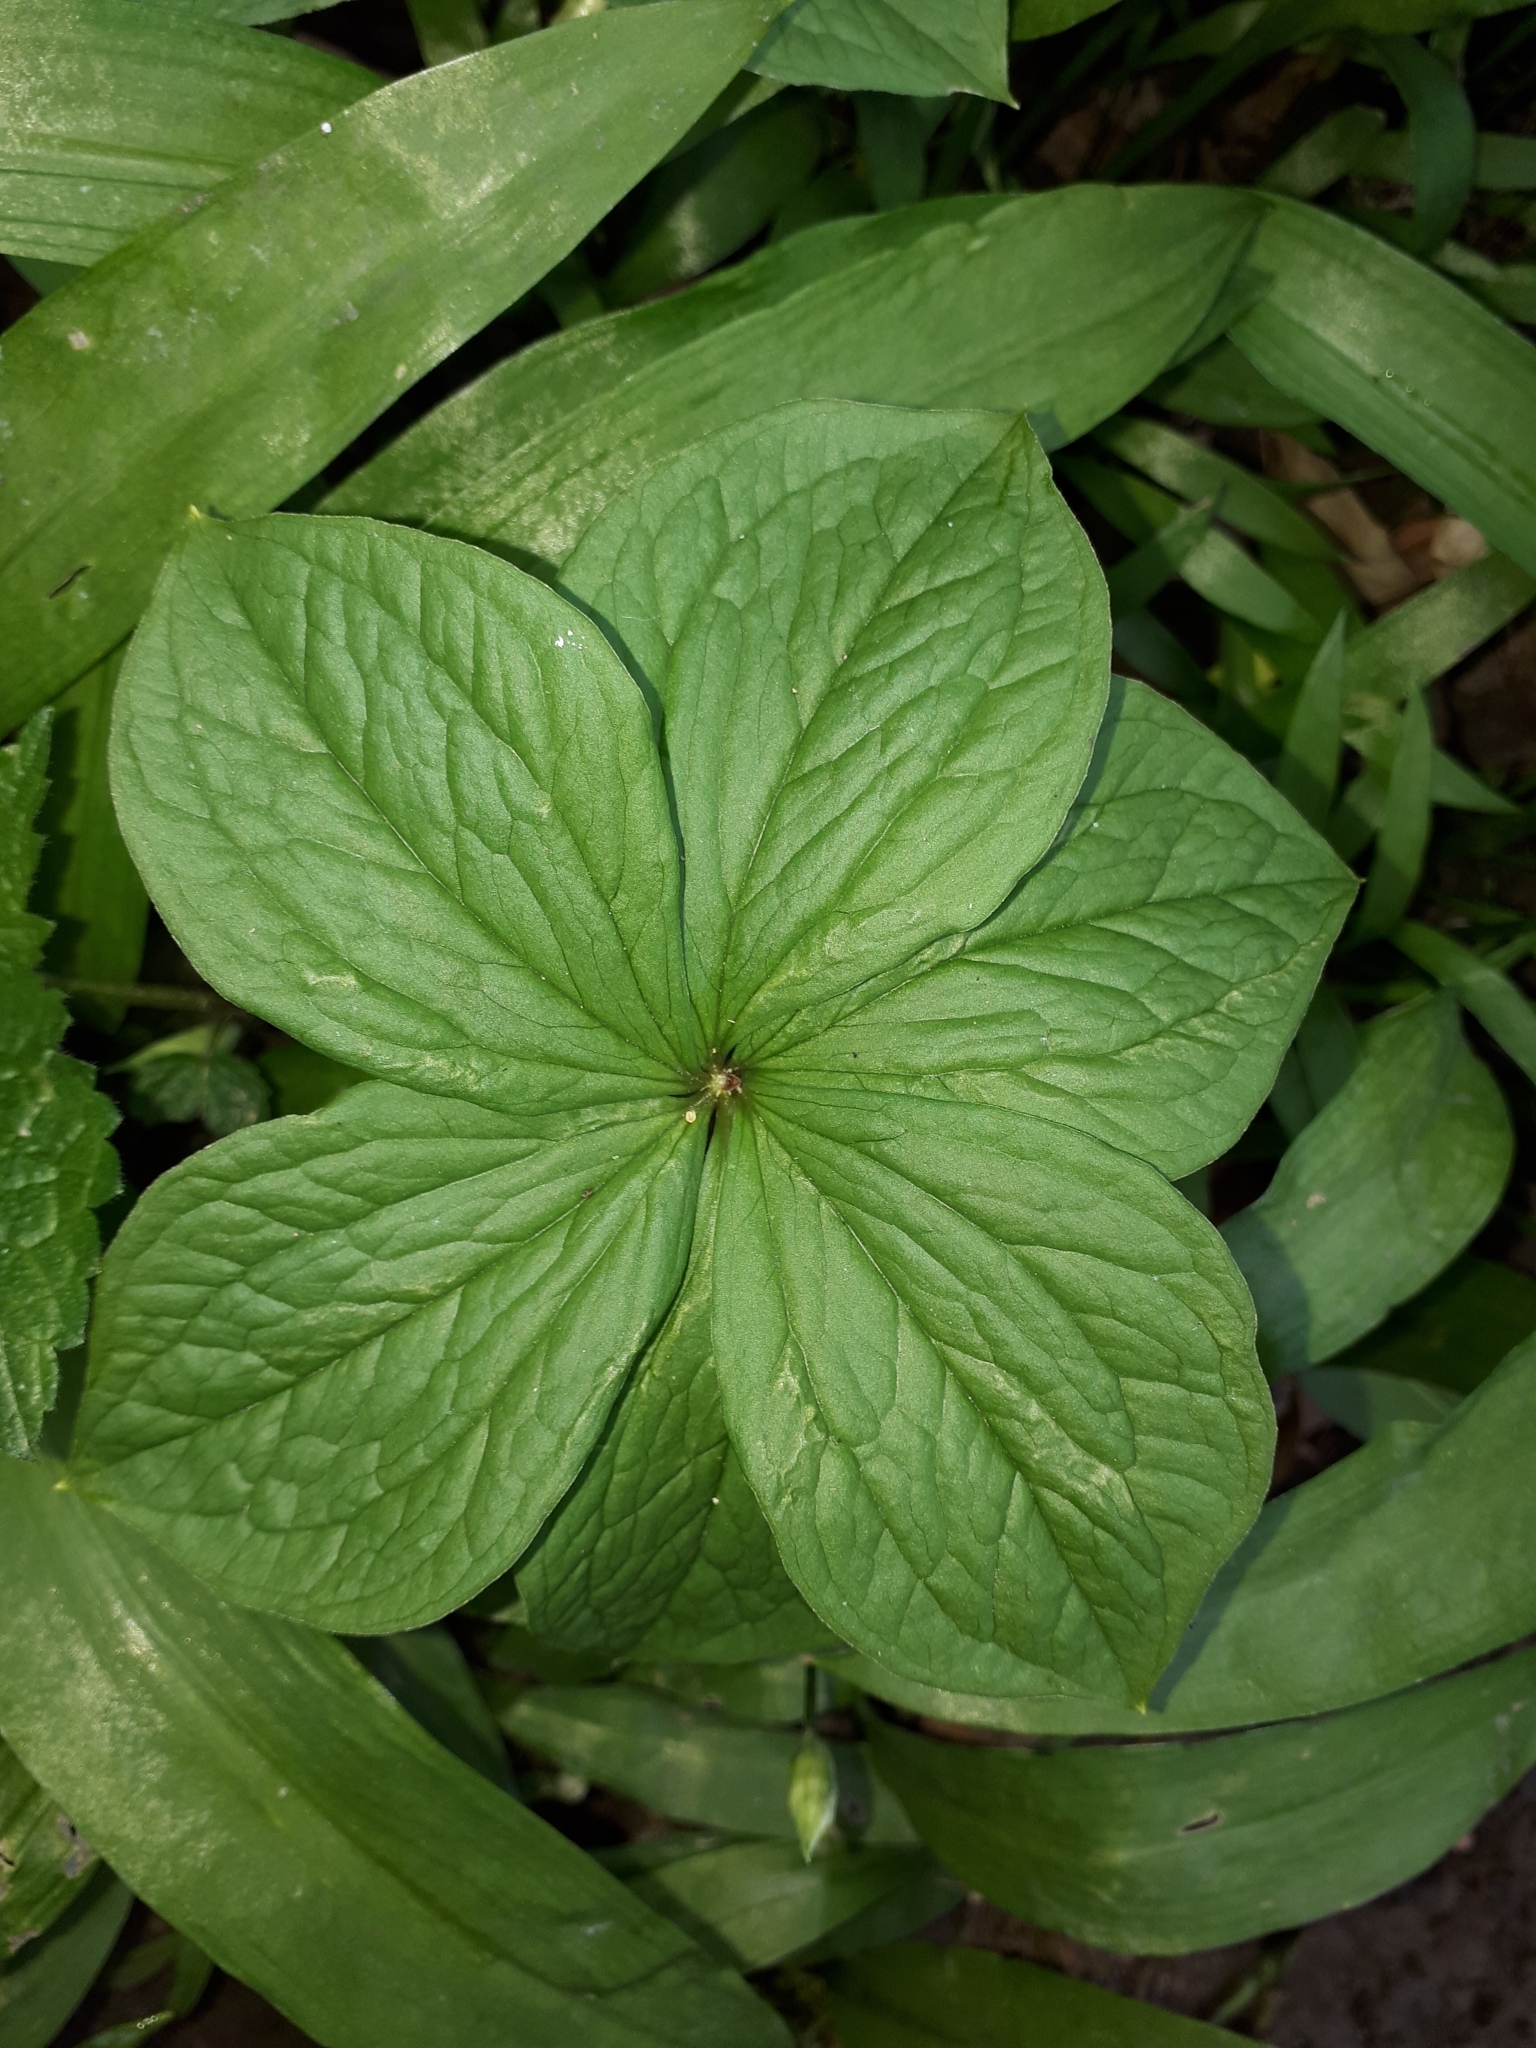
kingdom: Plantae
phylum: Tracheophyta
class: Liliopsida
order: Liliales
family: Melanthiaceae
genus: Paris
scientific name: Paris quadrifolia
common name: Herb-paris
